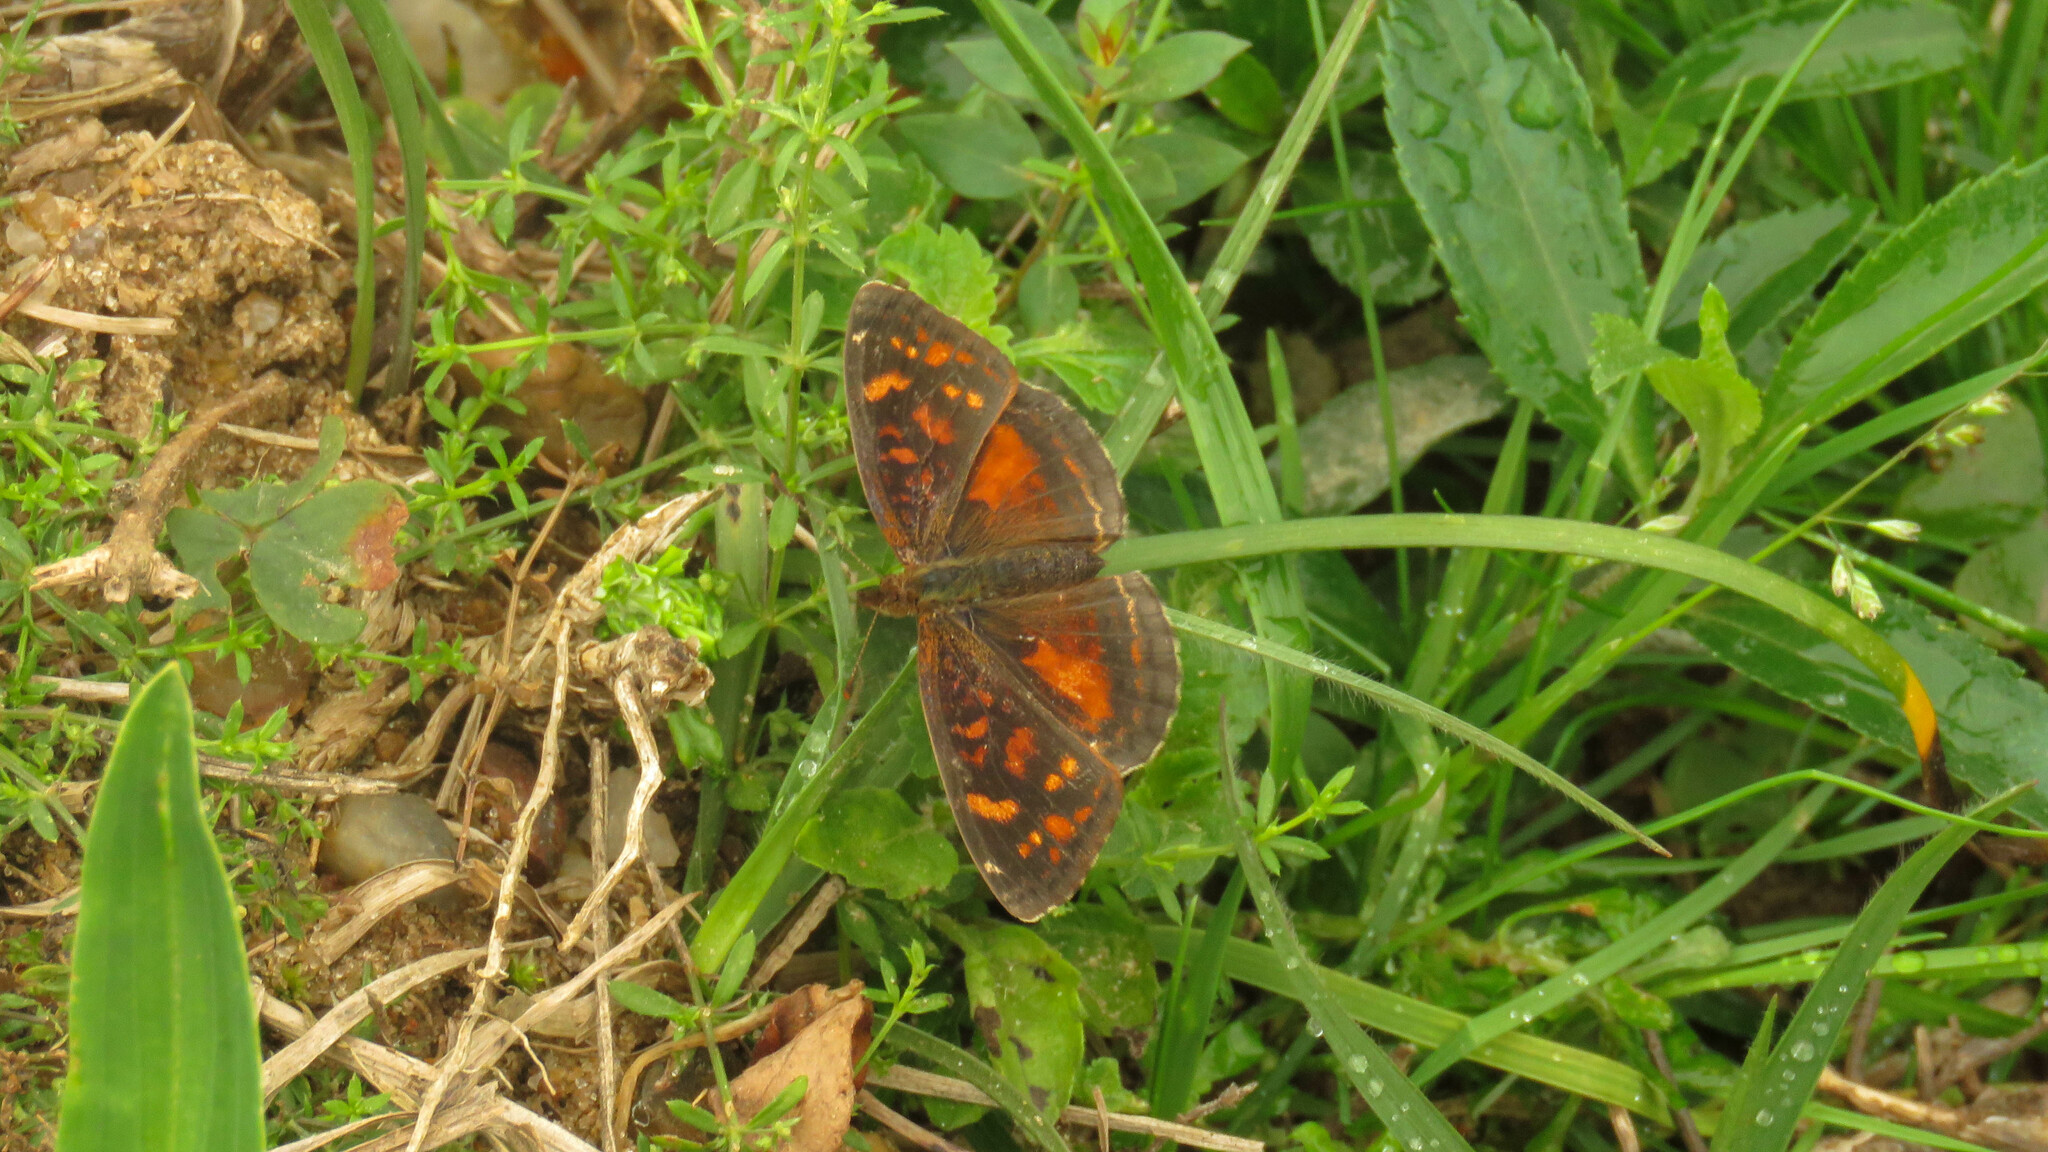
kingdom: Animalia
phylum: Arthropoda
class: Insecta
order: Lepidoptera
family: Nymphalidae
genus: Ortilia
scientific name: Ortilia velica
